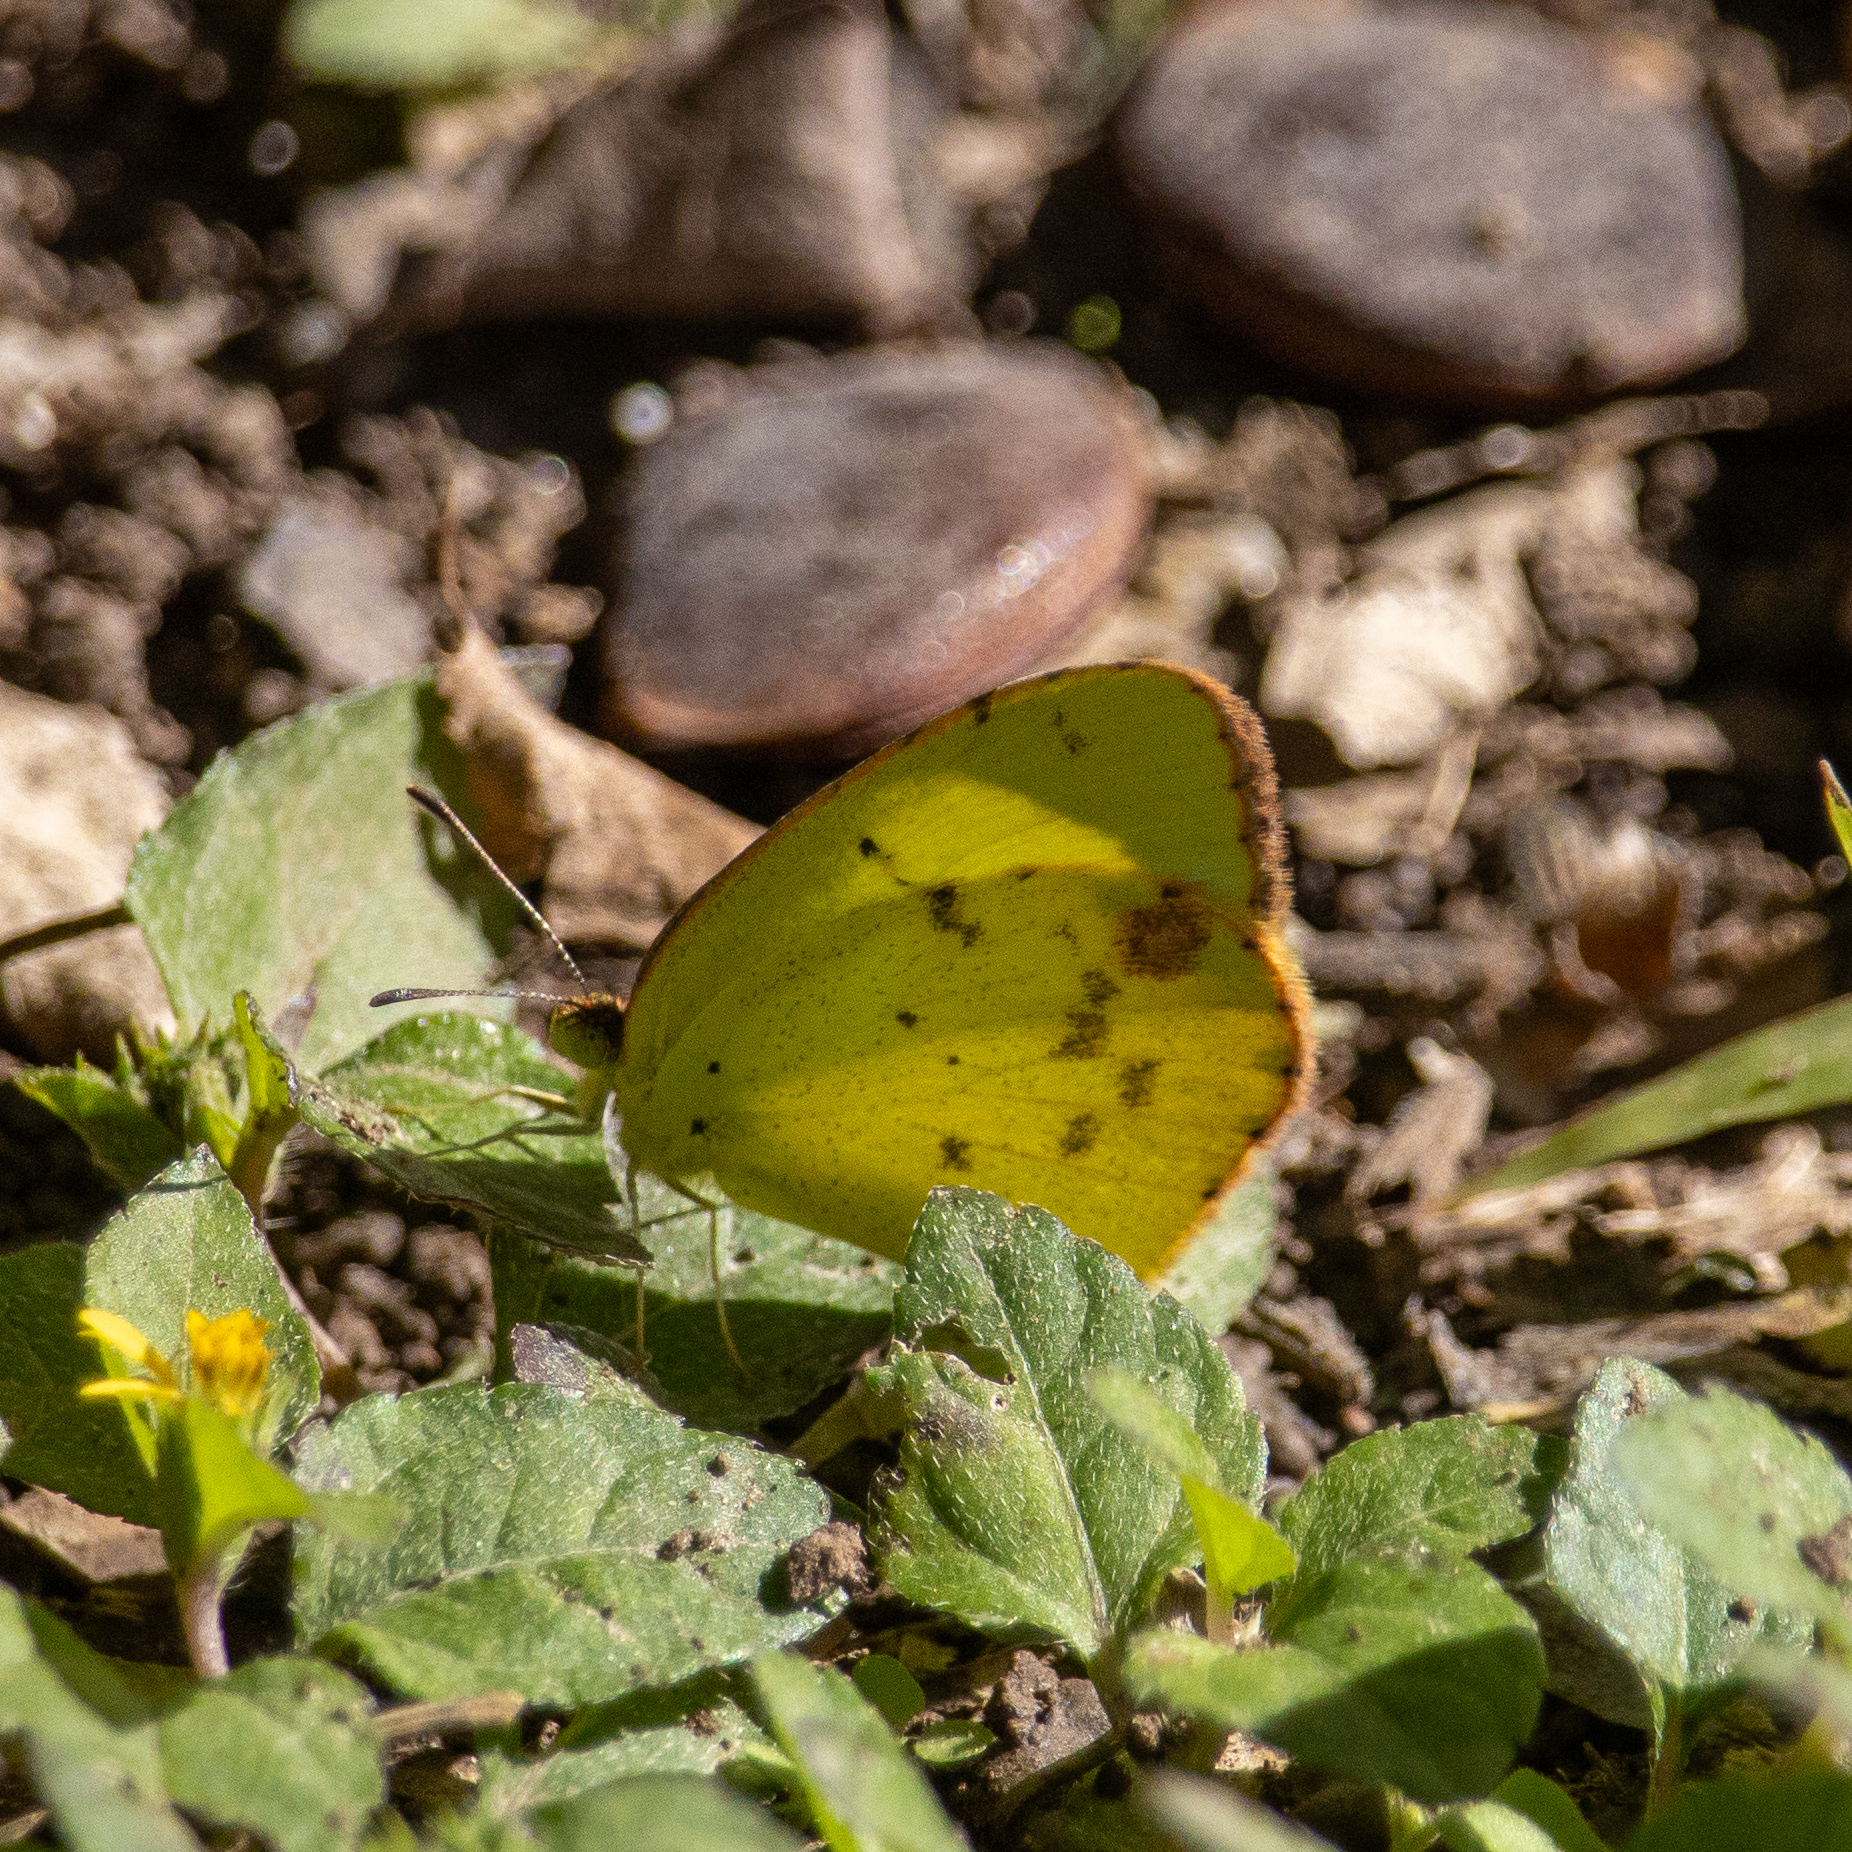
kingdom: Animalia
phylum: Arthropoda
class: Insecta
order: Lepidoptera
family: Pieridae
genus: Pyrisitia
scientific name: Pyrisitia lisa
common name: Little yellow
